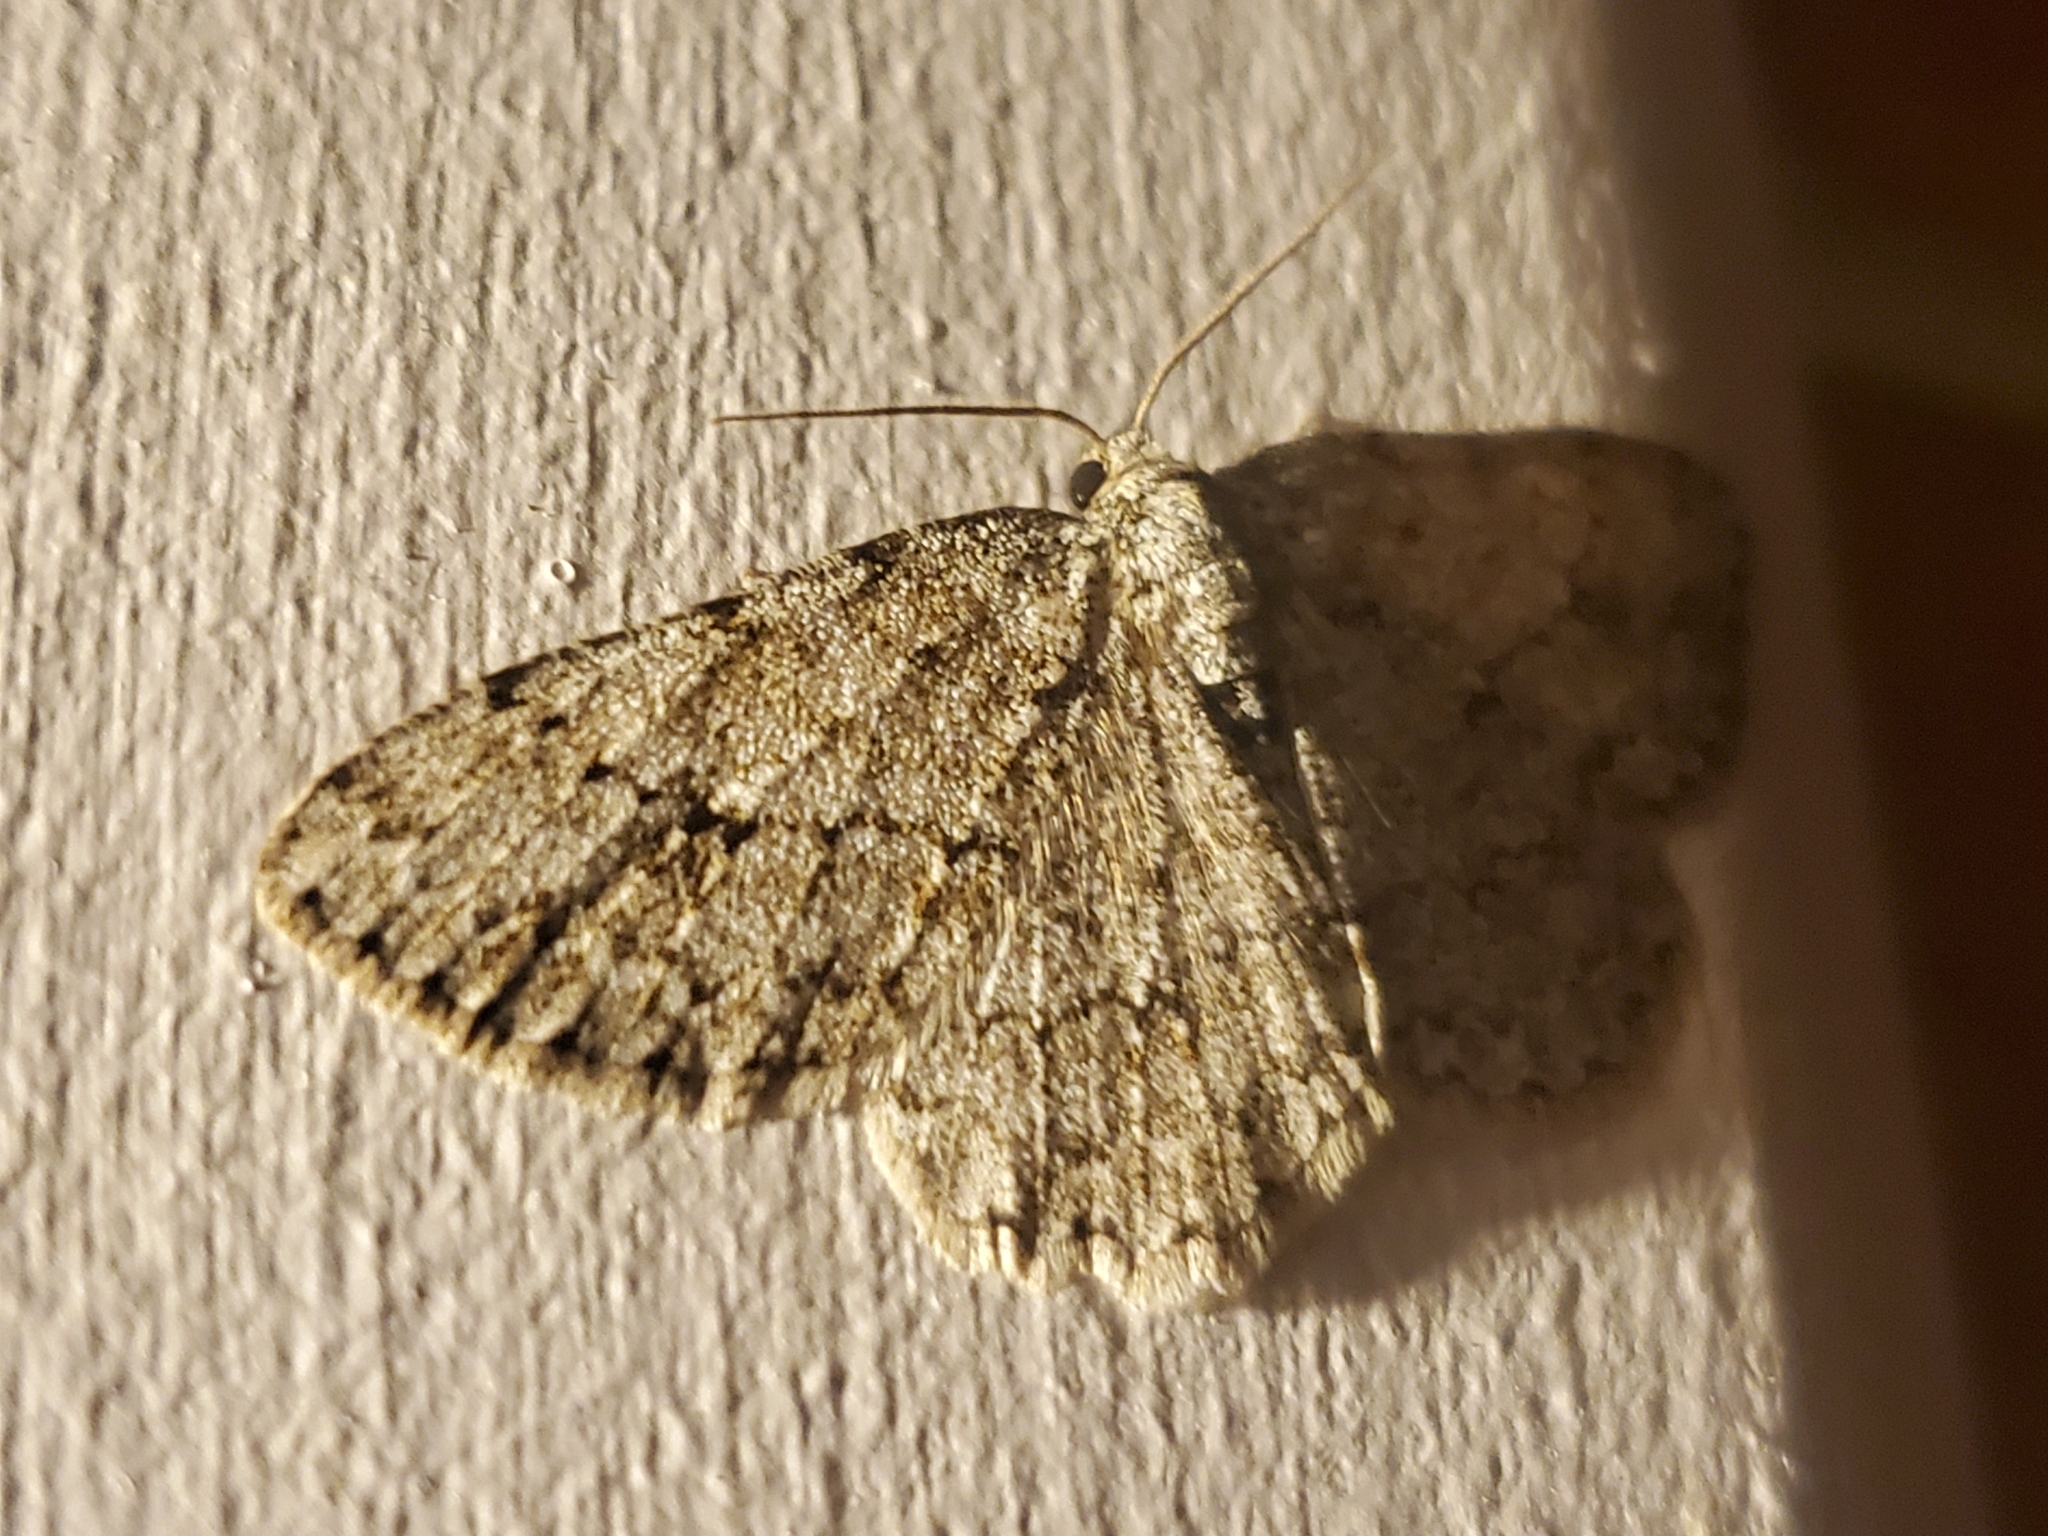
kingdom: Animalia
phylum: Arthropoda
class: Insecta
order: Lepidoptera
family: Geometridae
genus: Ectropis
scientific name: Ectropis crepuscularia
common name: Engrailed
